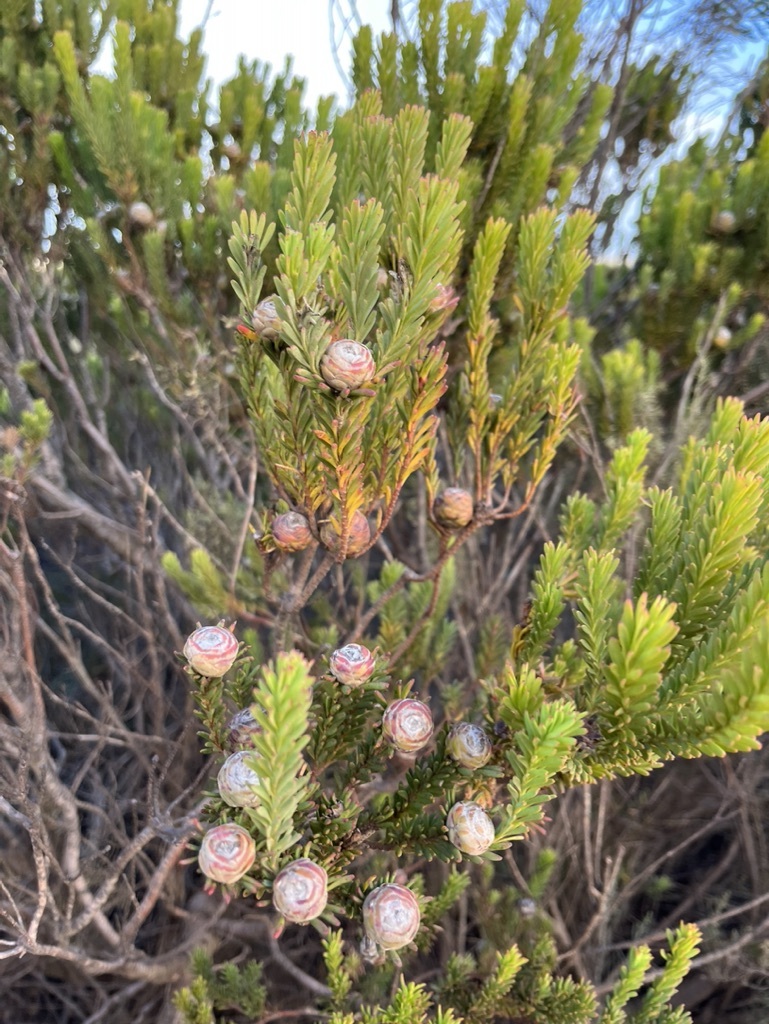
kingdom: Plantae
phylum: Tracheophyta
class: Magnoliopsida
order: Proteales
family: Proteaceae
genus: Leucadendron
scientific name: Leucadendron linifolium
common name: Line-leaf conebush
